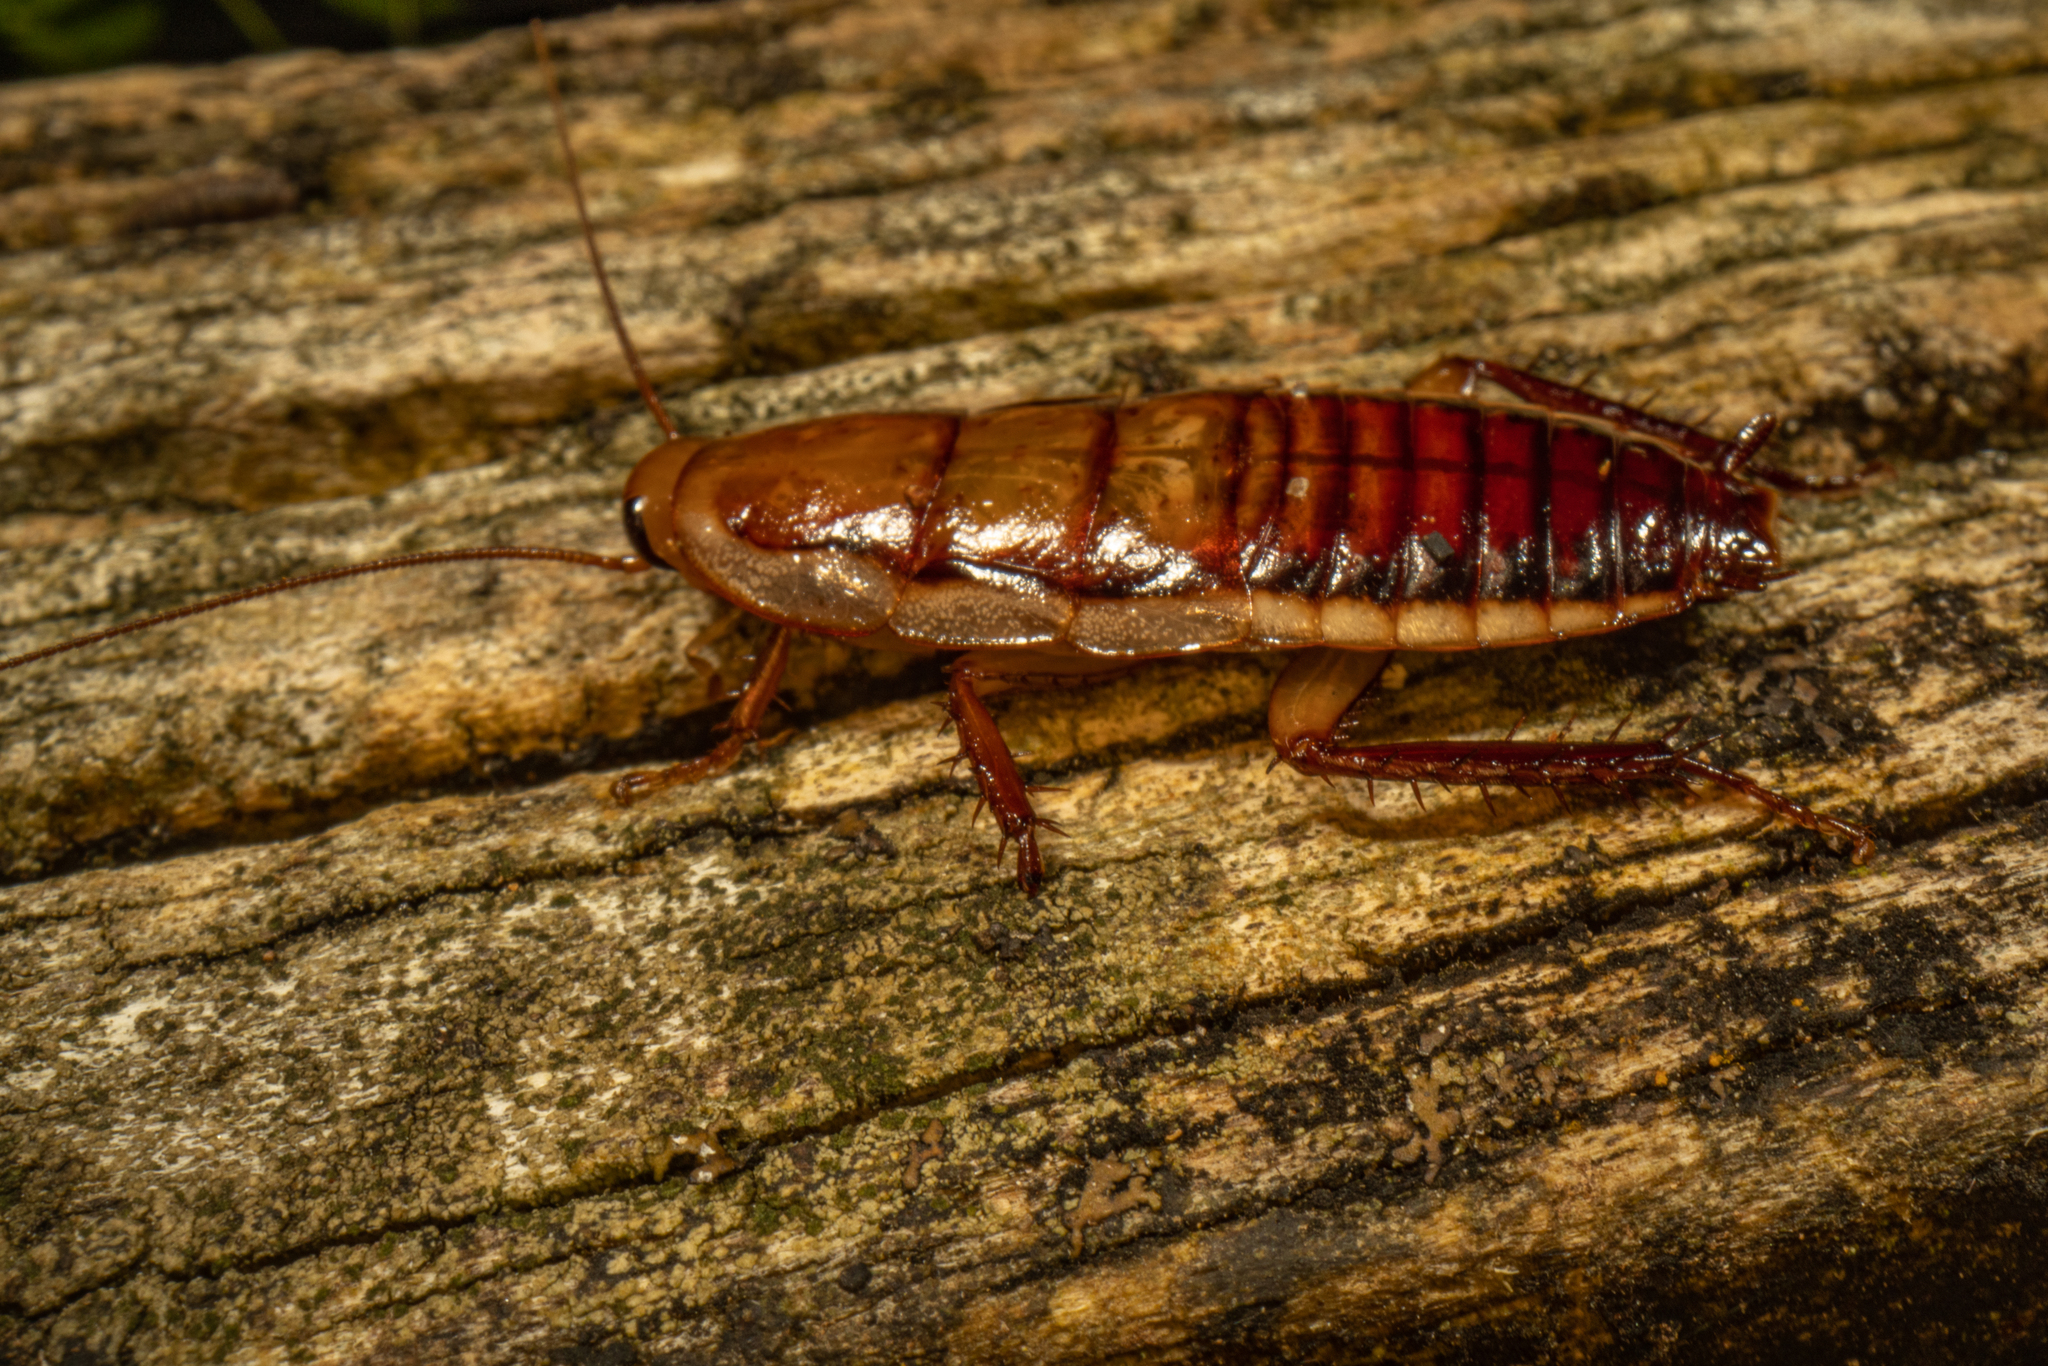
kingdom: Animalia
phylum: Arthropoda
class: Insecta
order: Blattodea
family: Blattidae
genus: Drymaplaneta
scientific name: Drymaplaneta heydeniana
